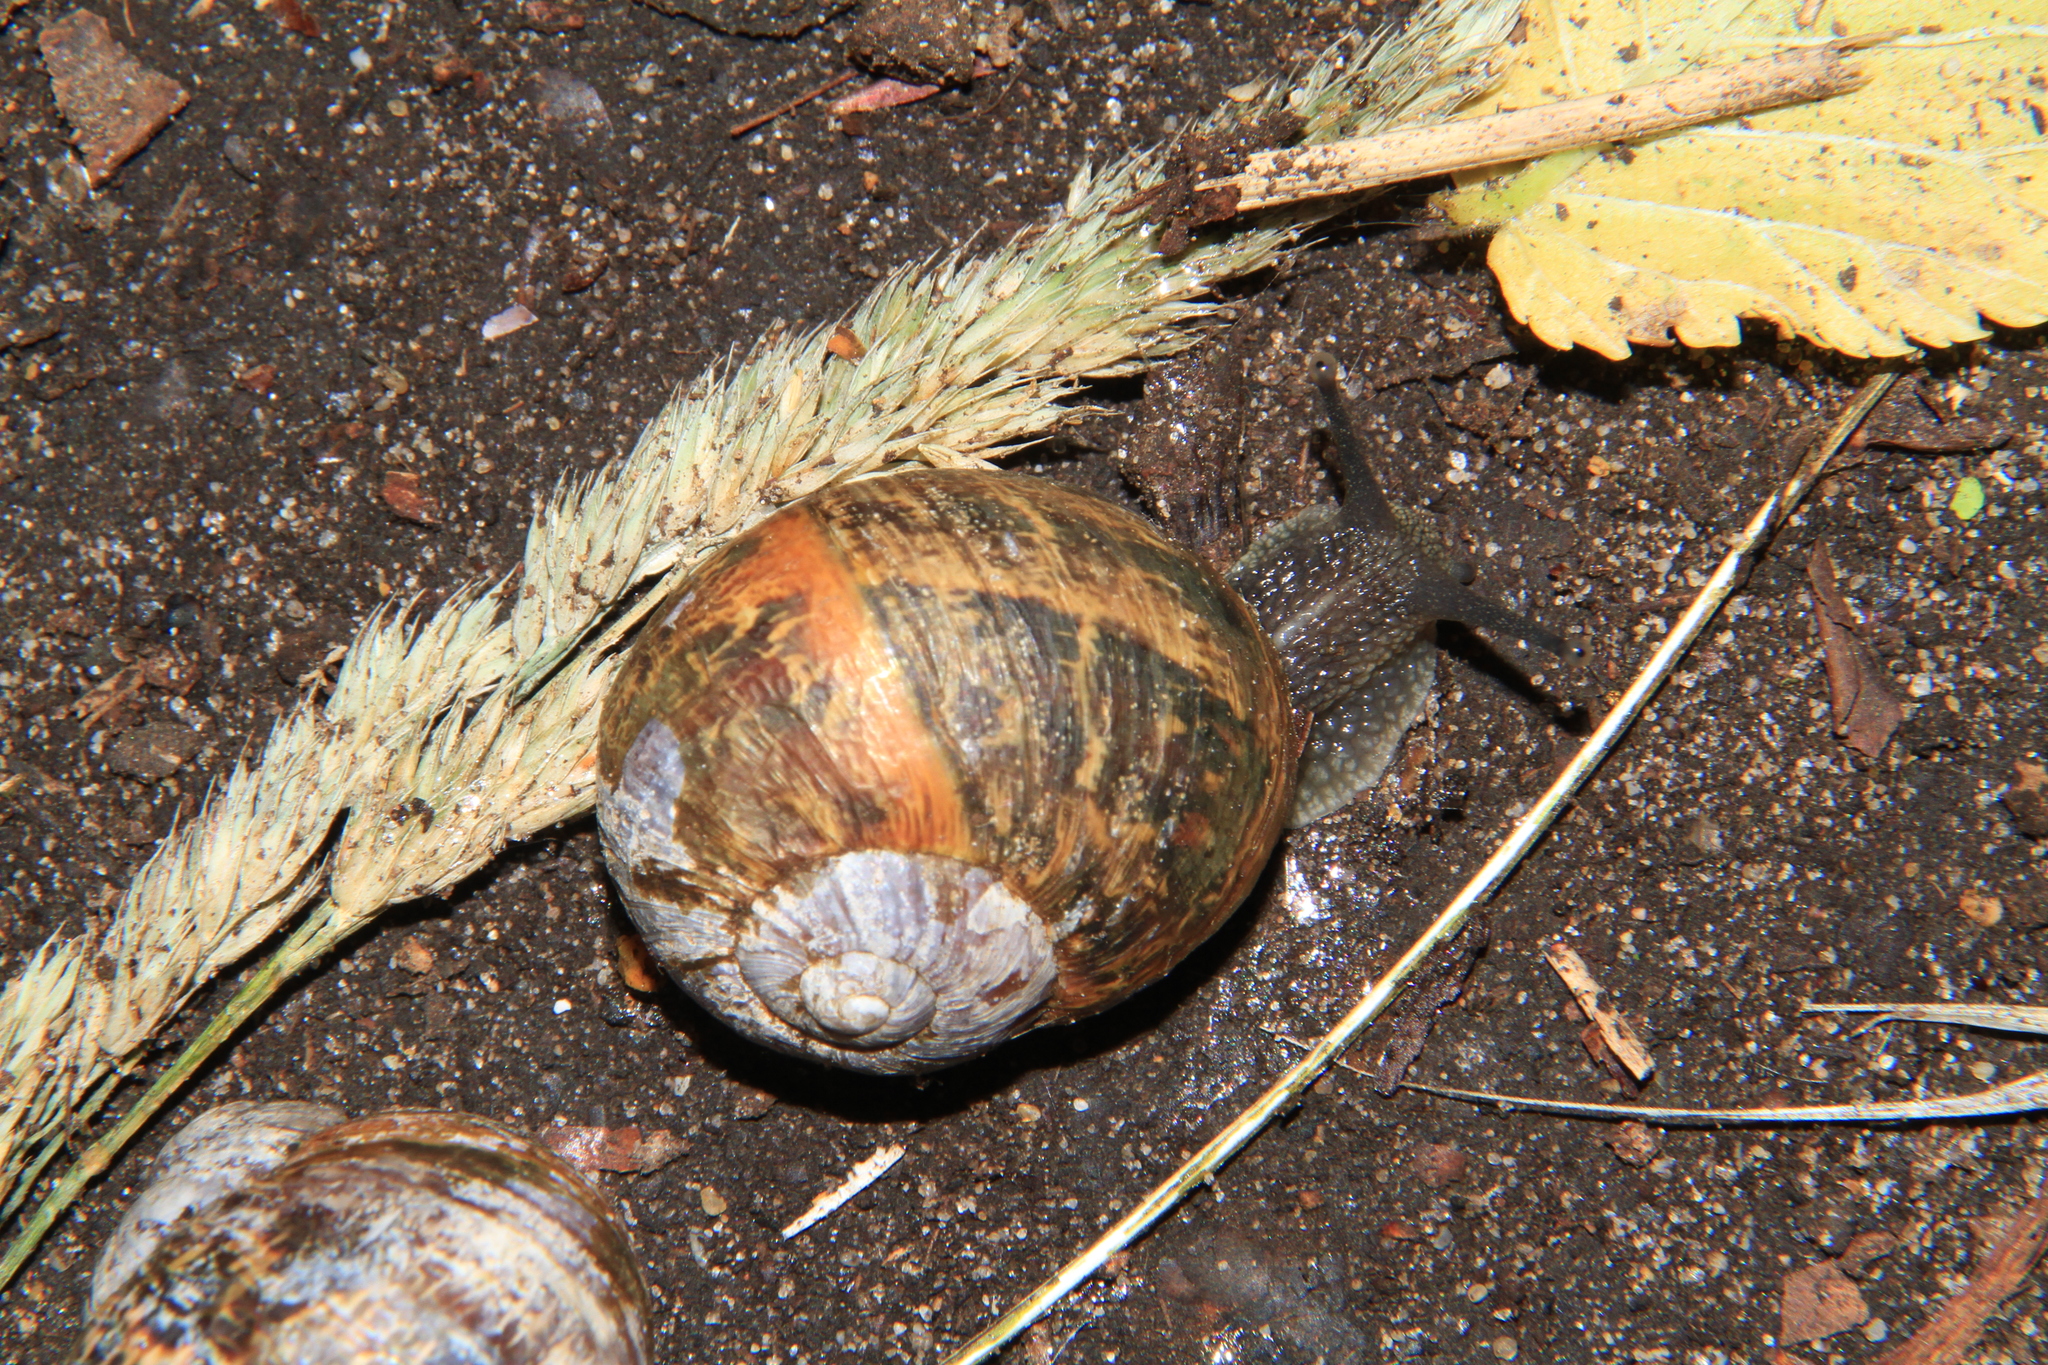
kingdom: Animalia
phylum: Mollusca
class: Gastropoda
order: Stylommatophora
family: Helicidae
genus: Cornu
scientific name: Cornu aspersum
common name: Brown garden snail
